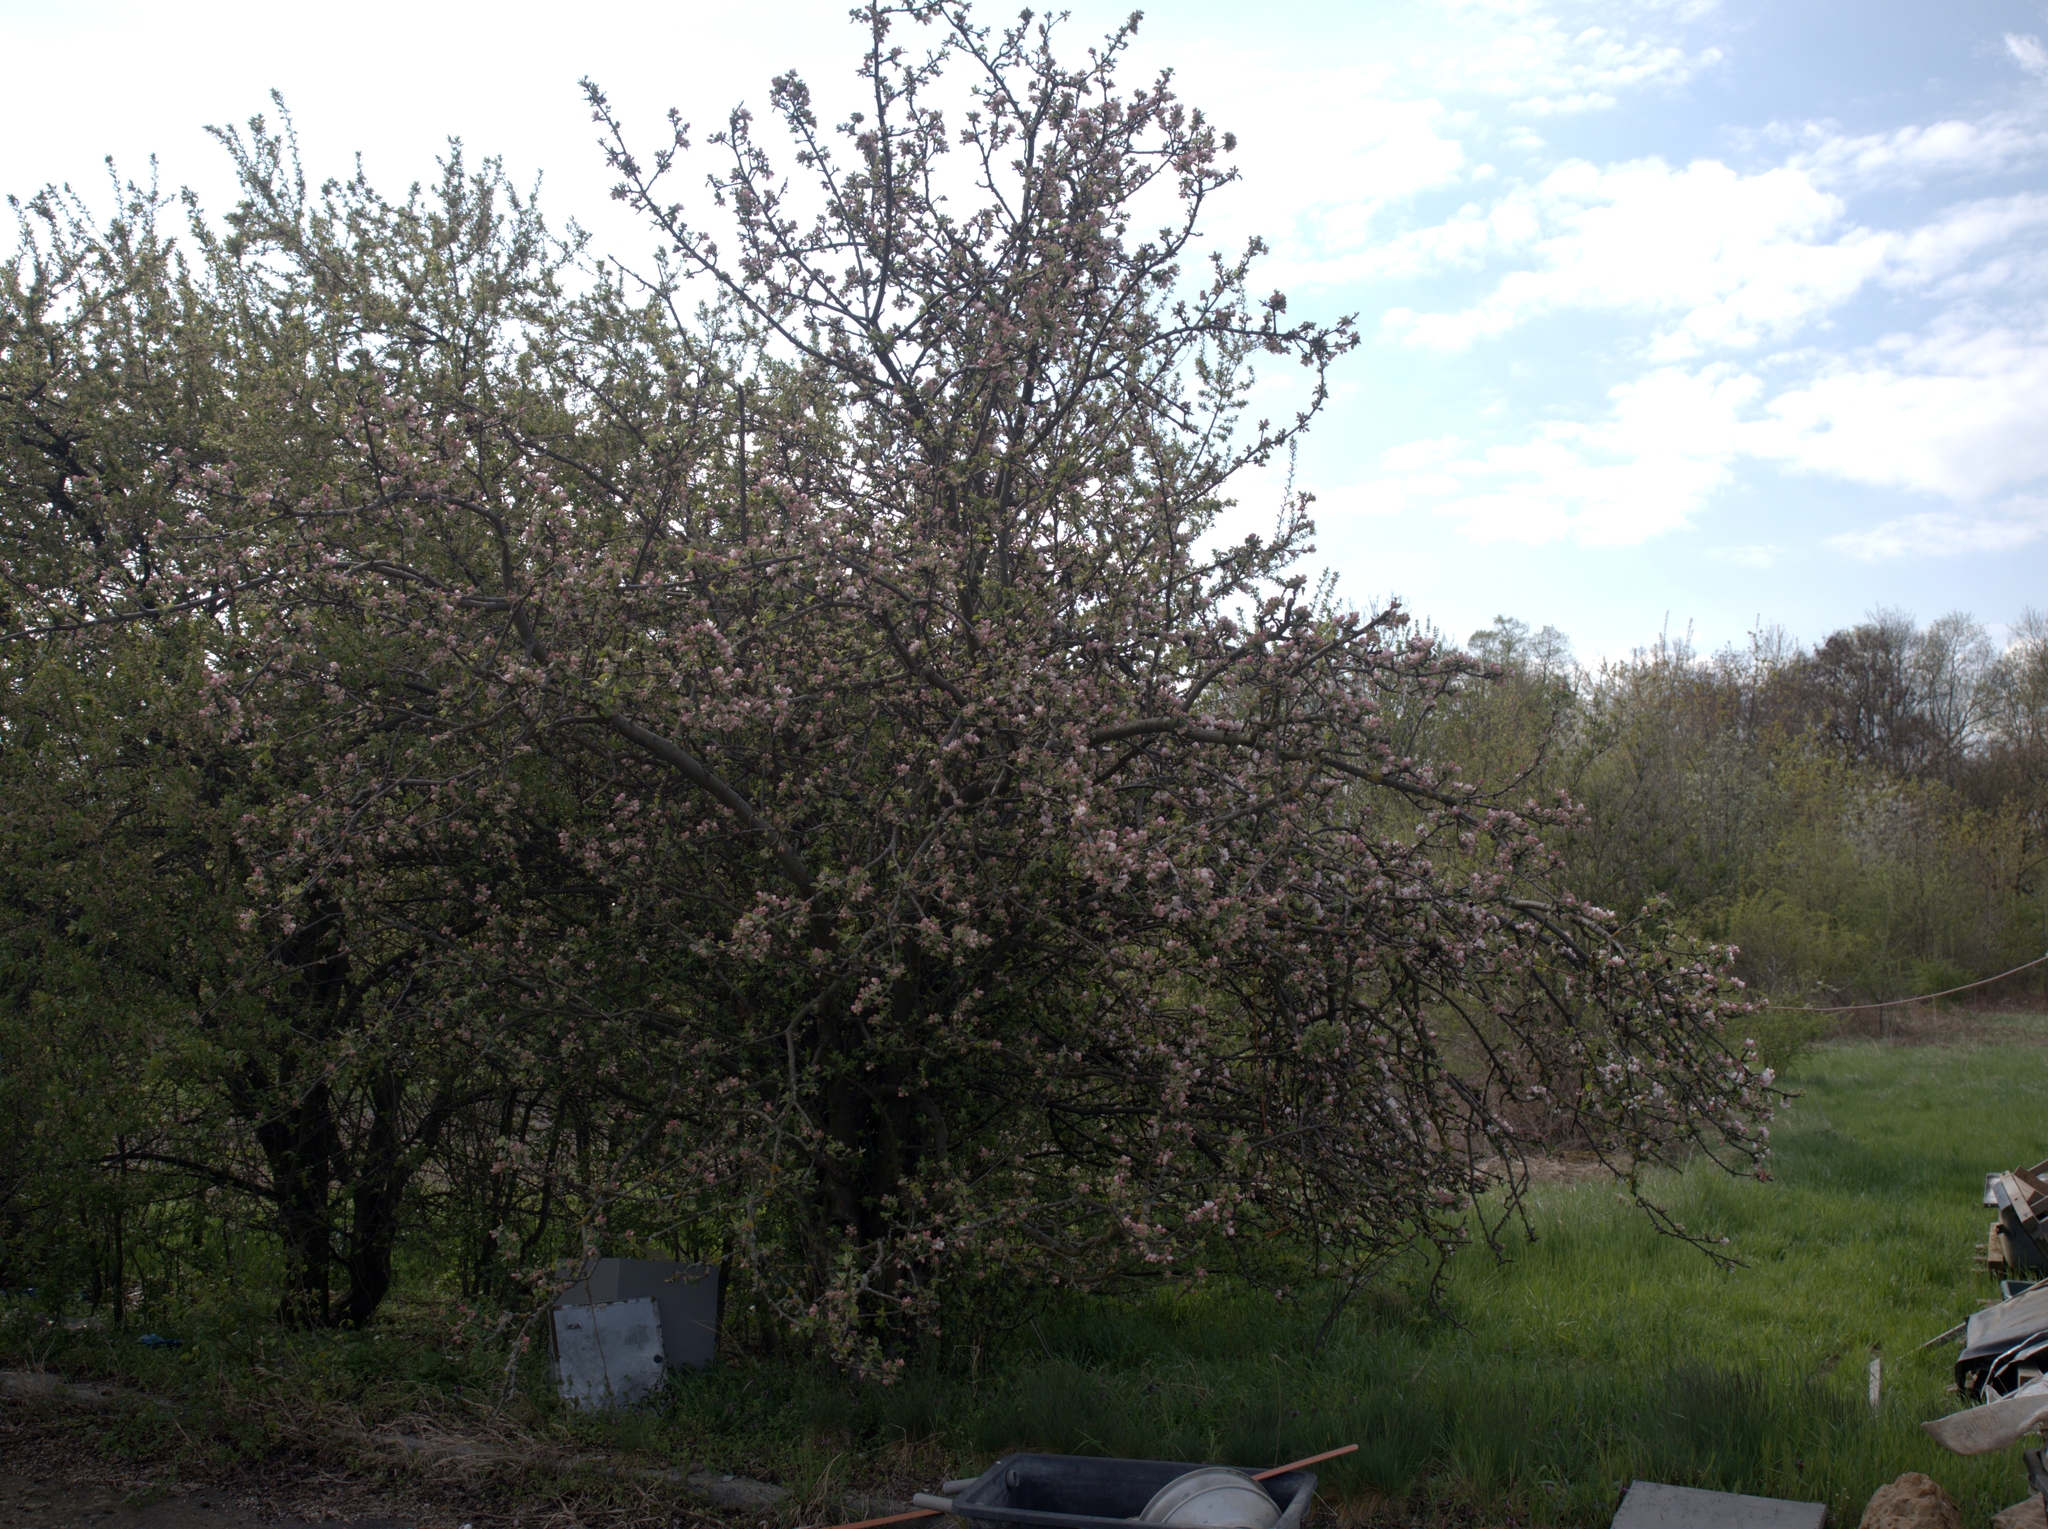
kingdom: Plantae
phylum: Tracheophyta
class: Magnoliopsida
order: Rosales
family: Rosaceae
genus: Malus
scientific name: Malus domestica
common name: Apple
